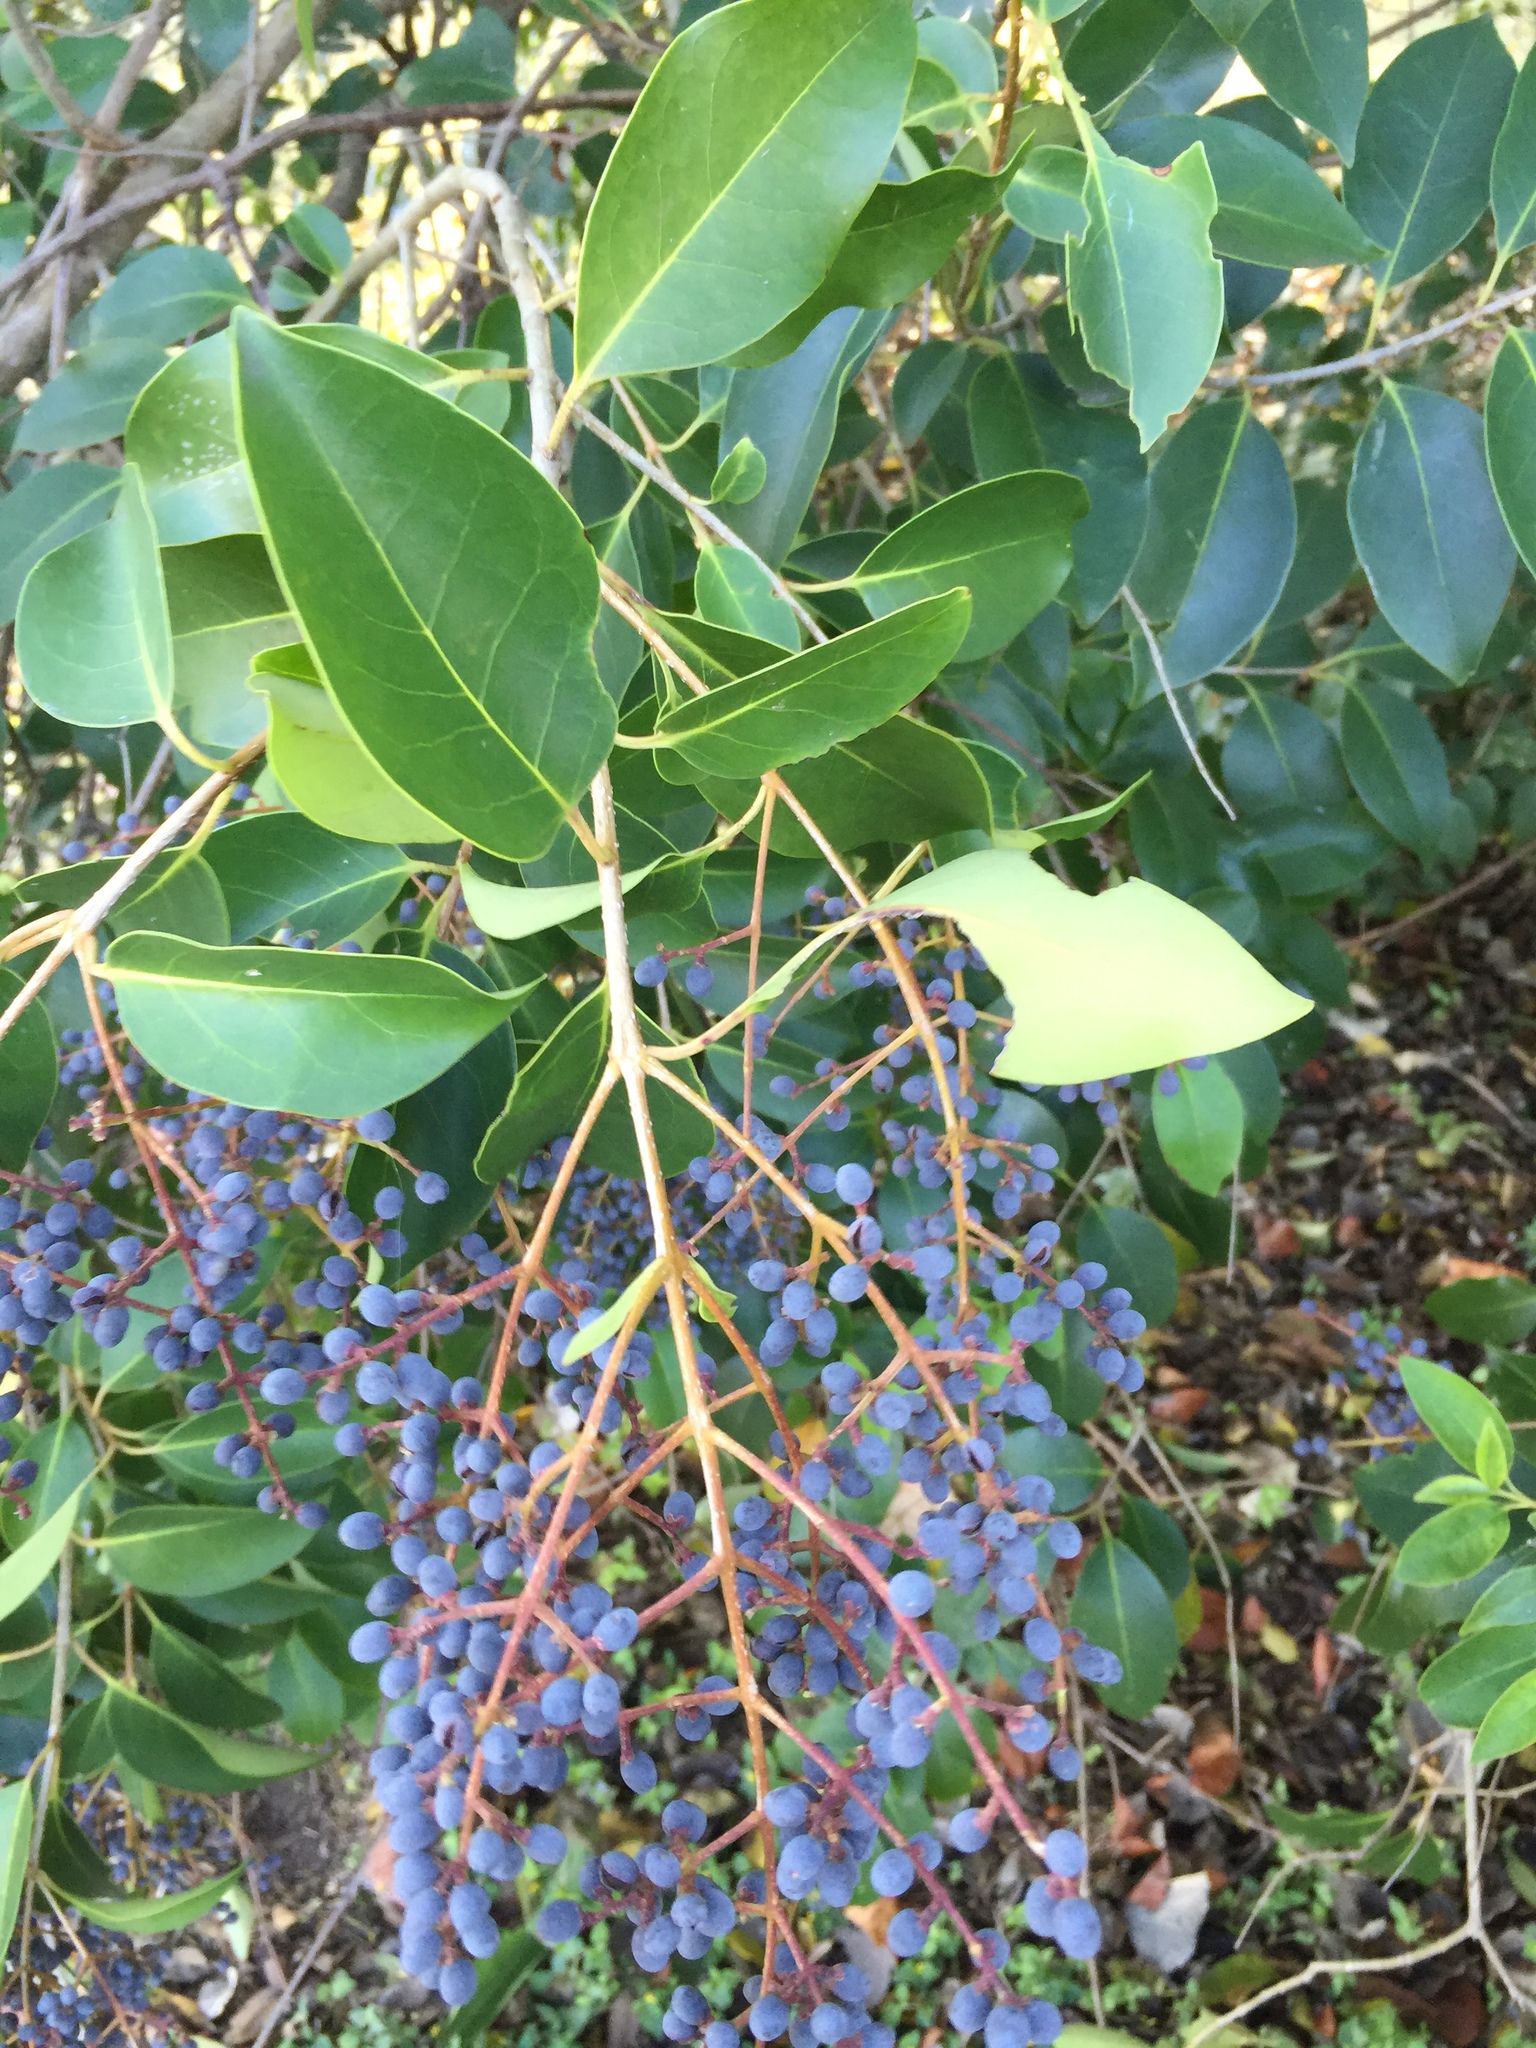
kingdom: Plantae
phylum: Tracheophyta
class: Magnoliopsida
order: Lamiales
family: Oleaceae
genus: Ligustrum
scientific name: Ligustrum lucidum
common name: Glossy privet
